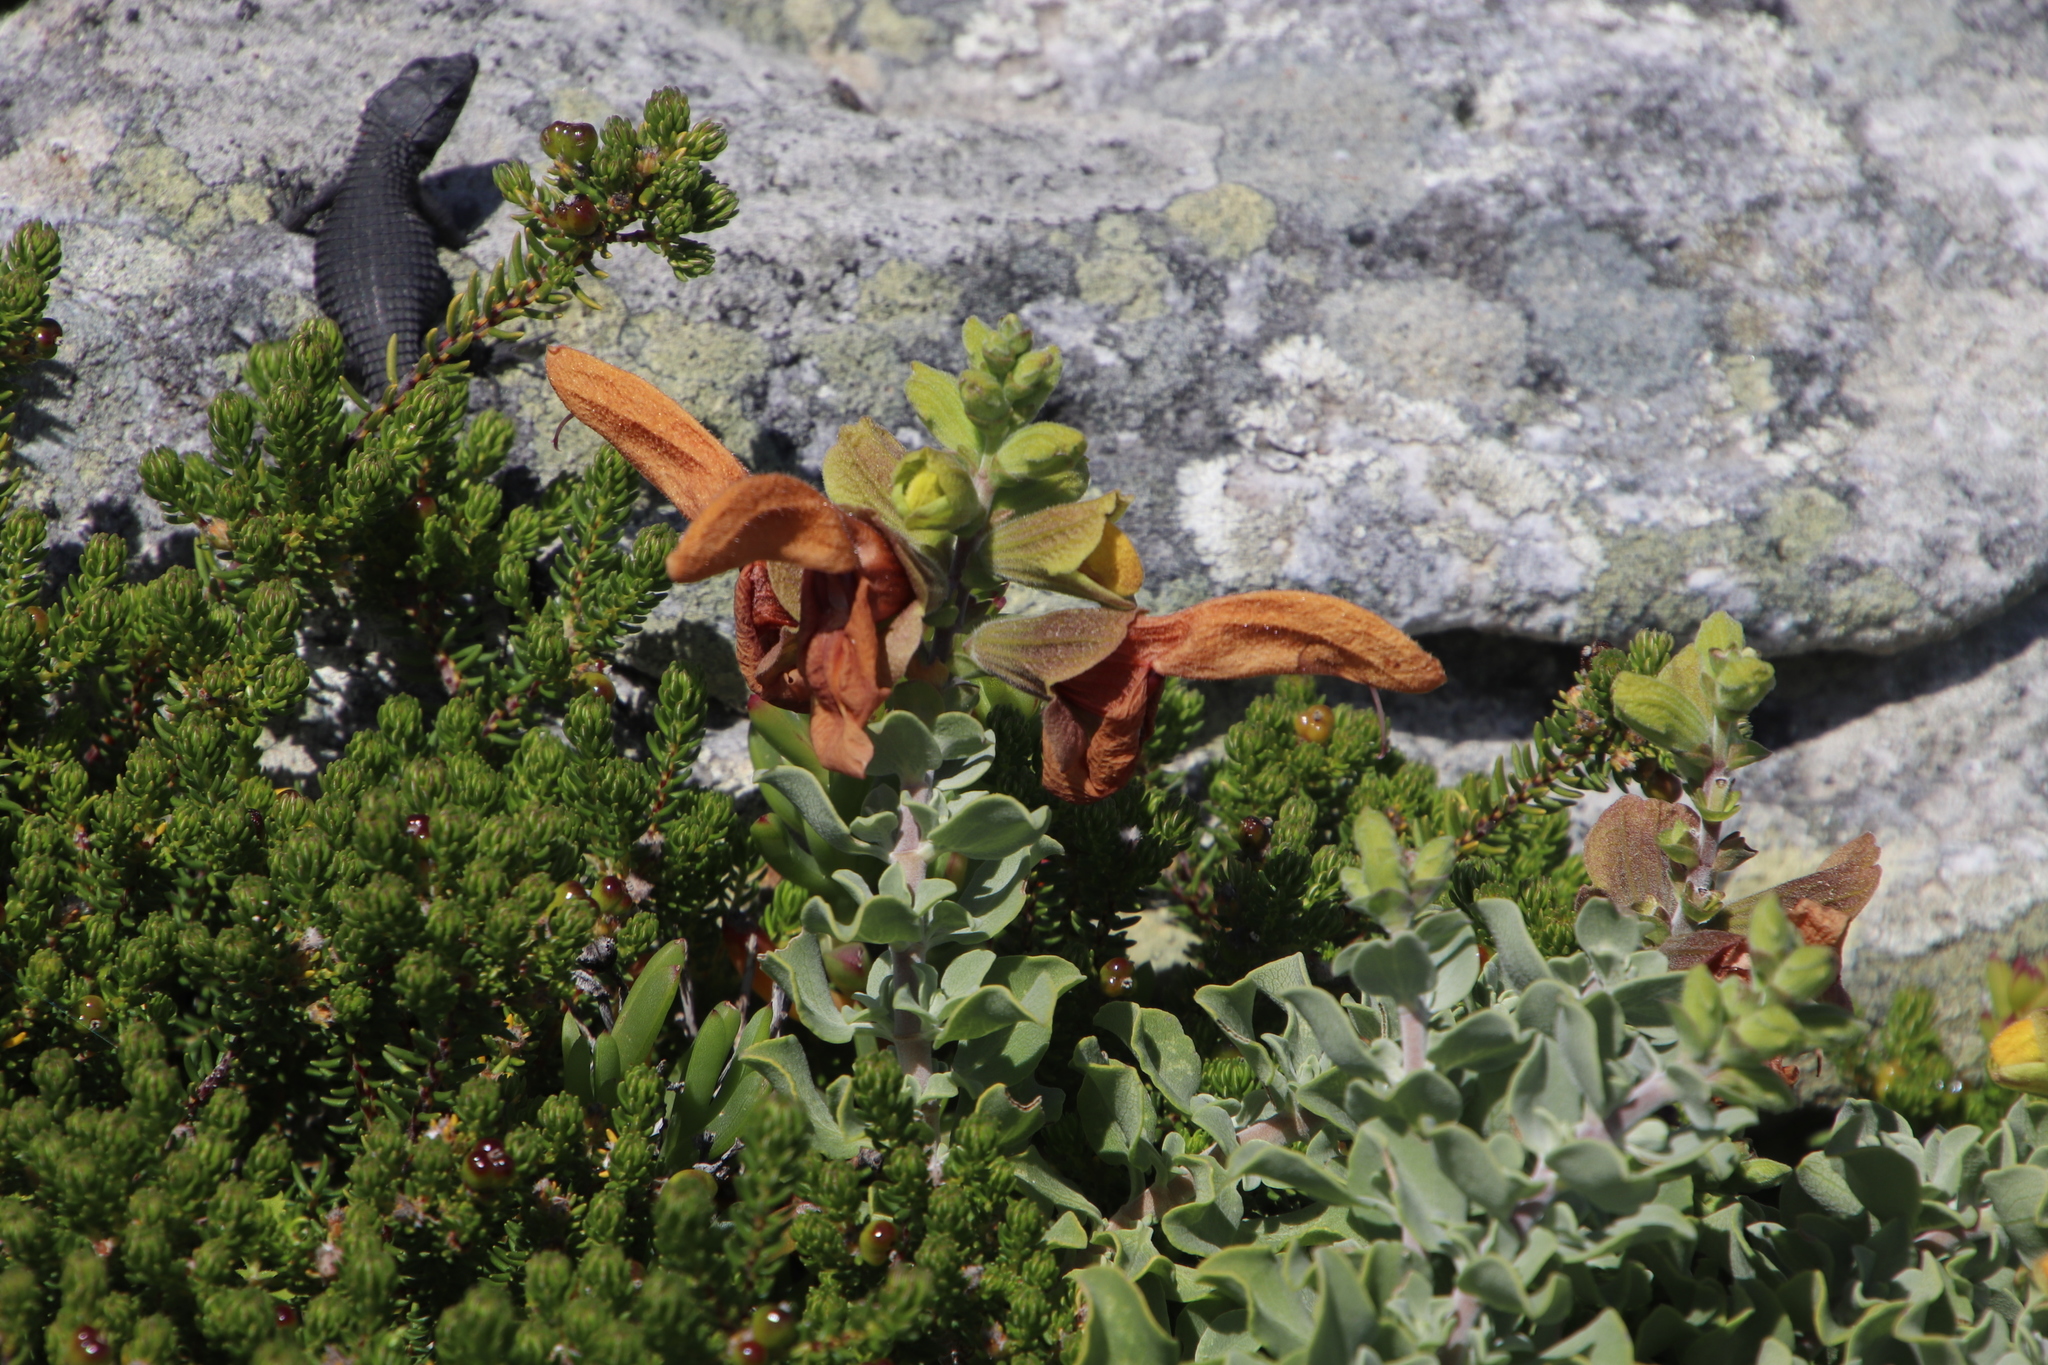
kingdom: Plantae
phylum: Tracheophyta
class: Magnoliopsida
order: Lamiales
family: Lamiaceae
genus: Salvia
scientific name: Salvia aurea
